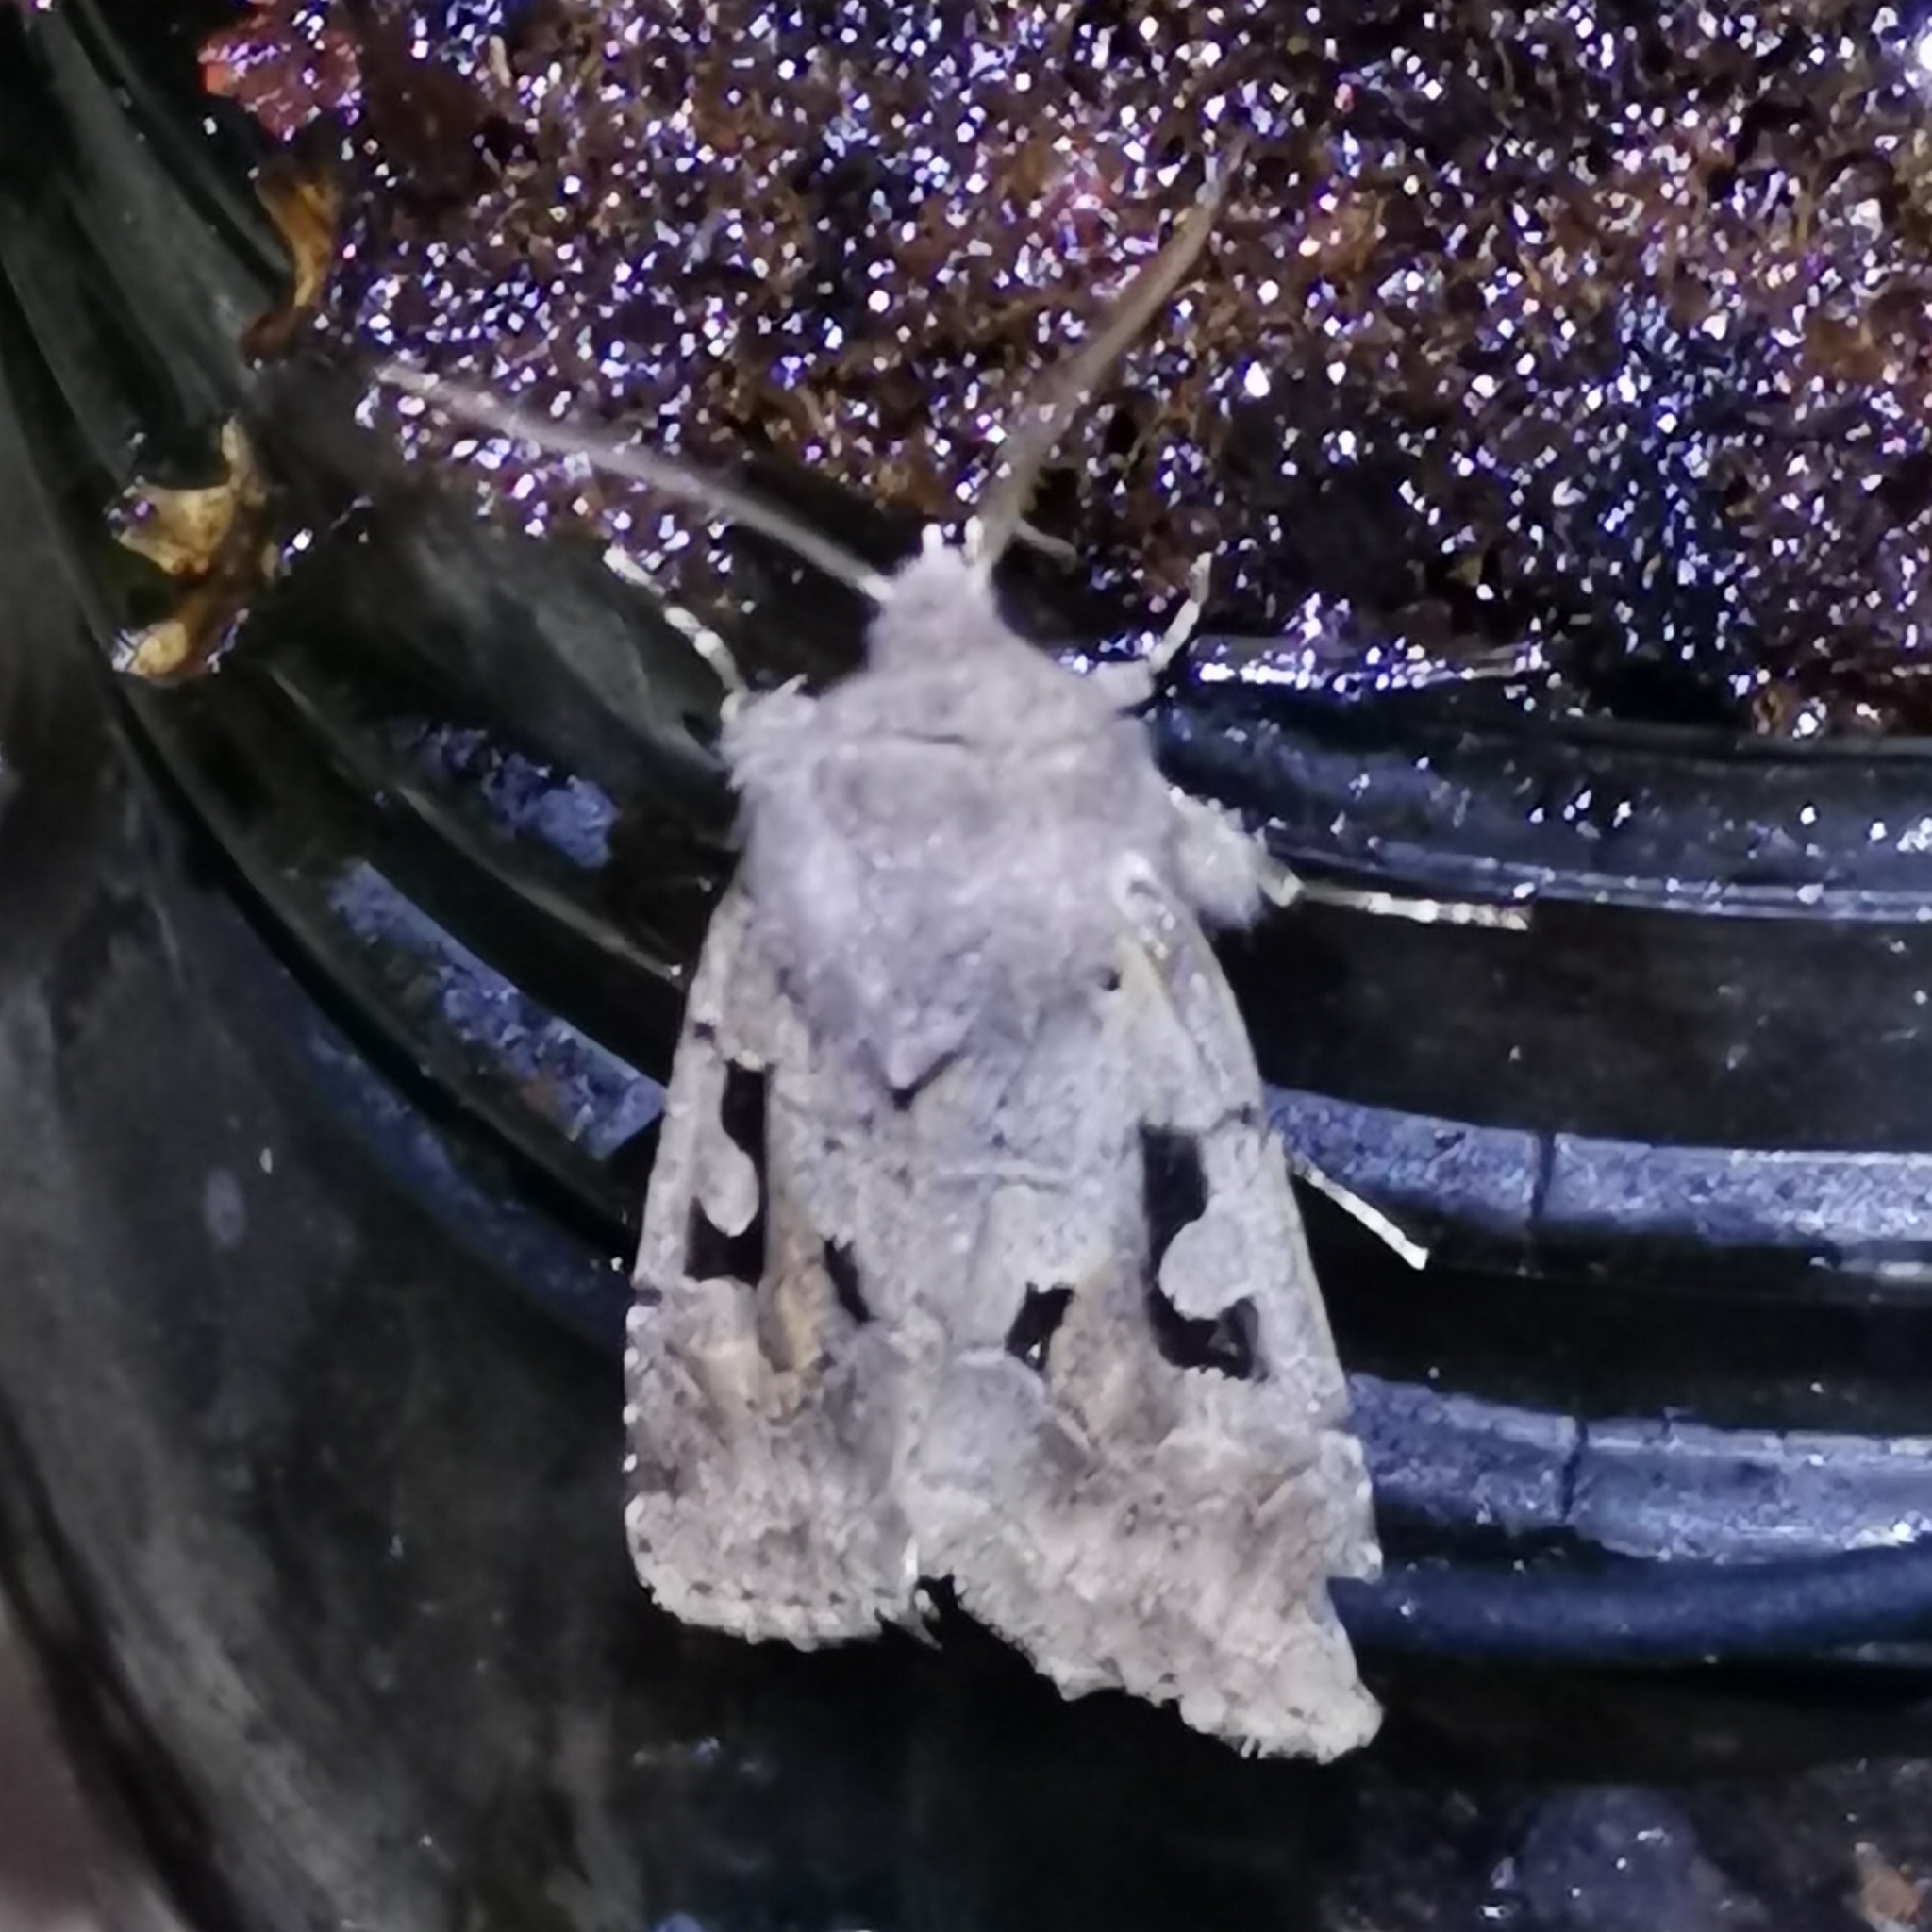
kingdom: Animalia
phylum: Arthropoda
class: Insecta
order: Lepidoptera
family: Noctuidae
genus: Orthosia
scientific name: Orthosia gothica
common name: Hebrew character
